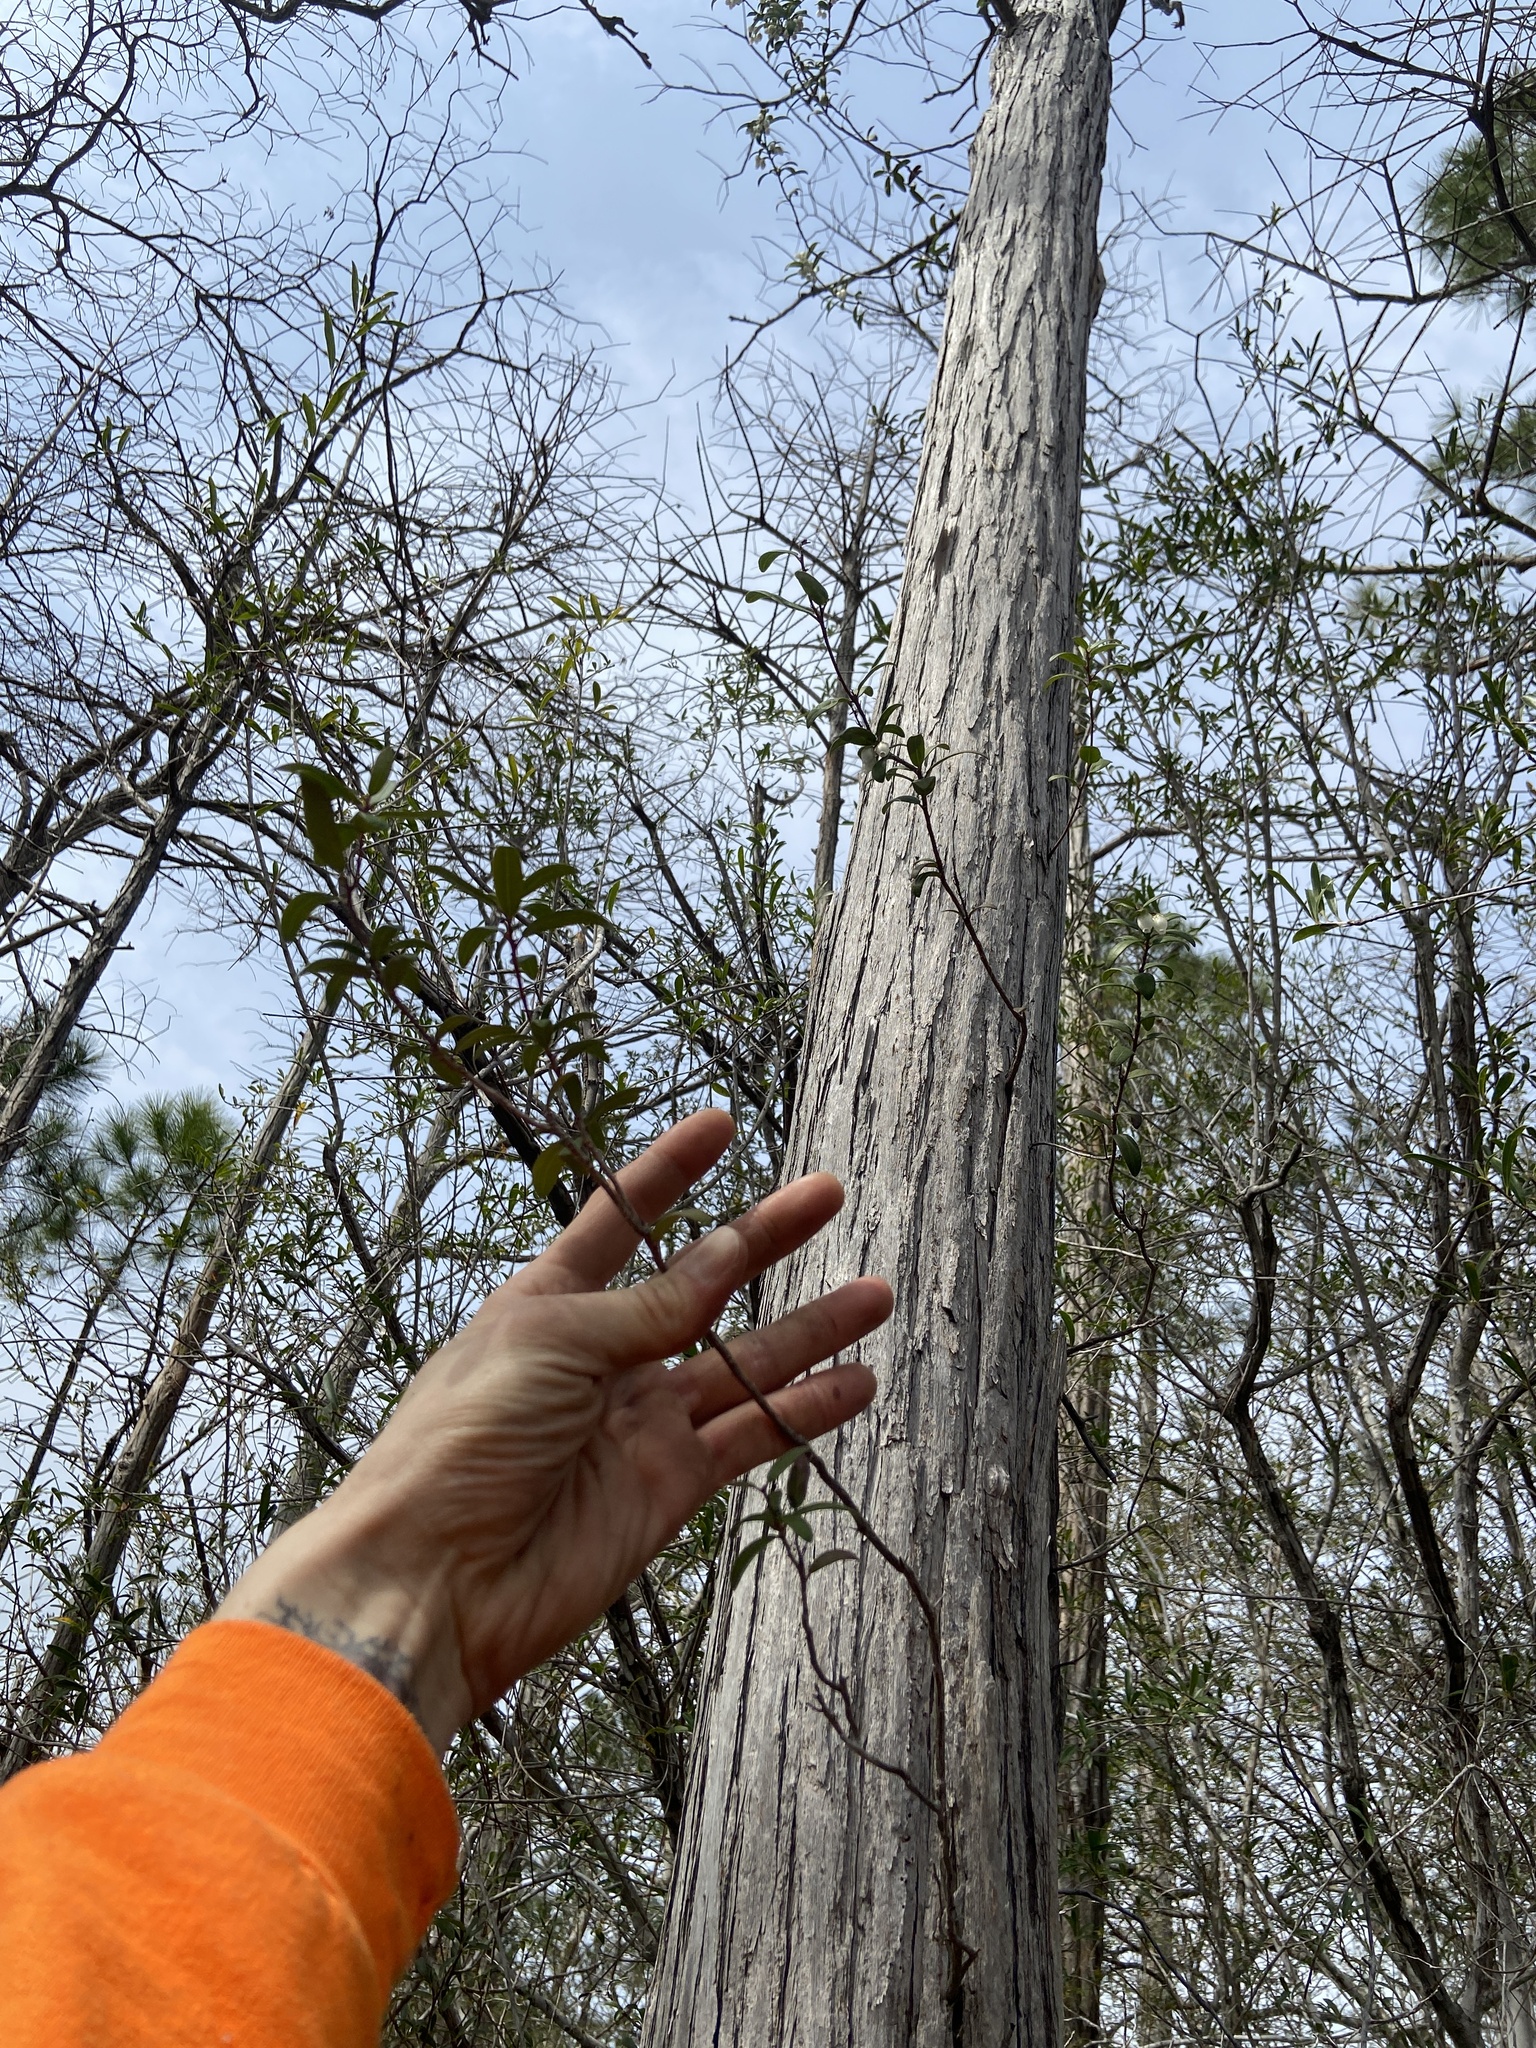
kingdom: Plantae
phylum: Tracheophyta
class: Magnoliopsida
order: Ericales
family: Ericaceae
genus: Pieris
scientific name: Pieris phillyreifolia
